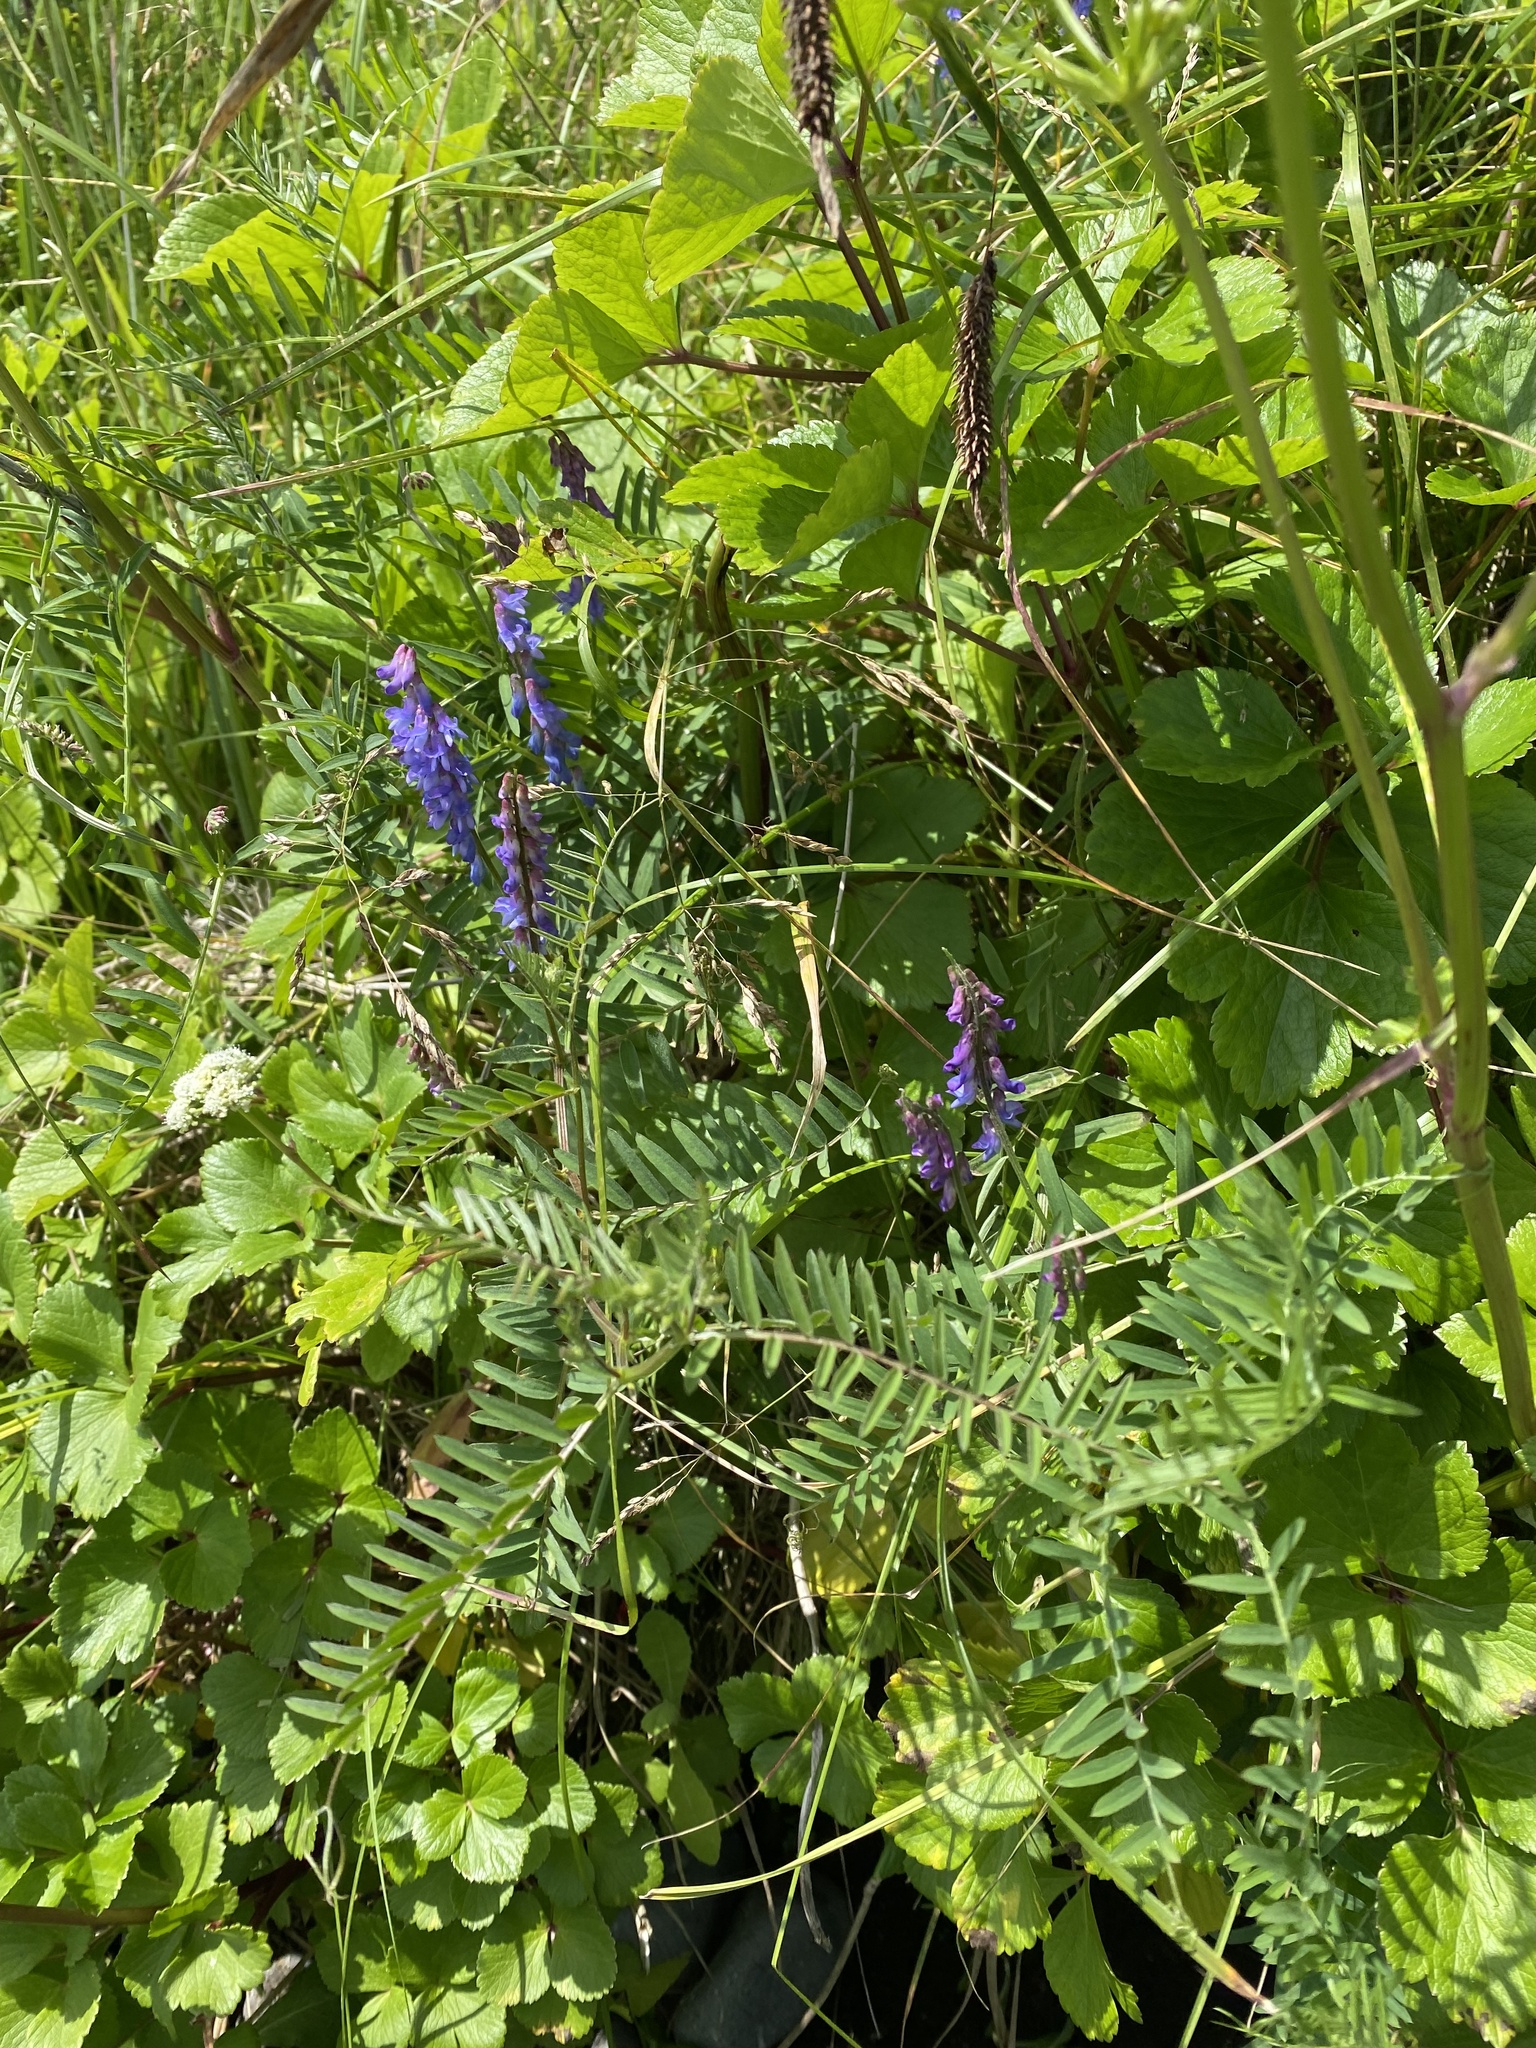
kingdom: Plantae
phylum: Tracheophyta
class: Magnoliopsida
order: Fabales
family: Fabaceae
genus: Vicia
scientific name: Vicia cracca
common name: Bird vetch
